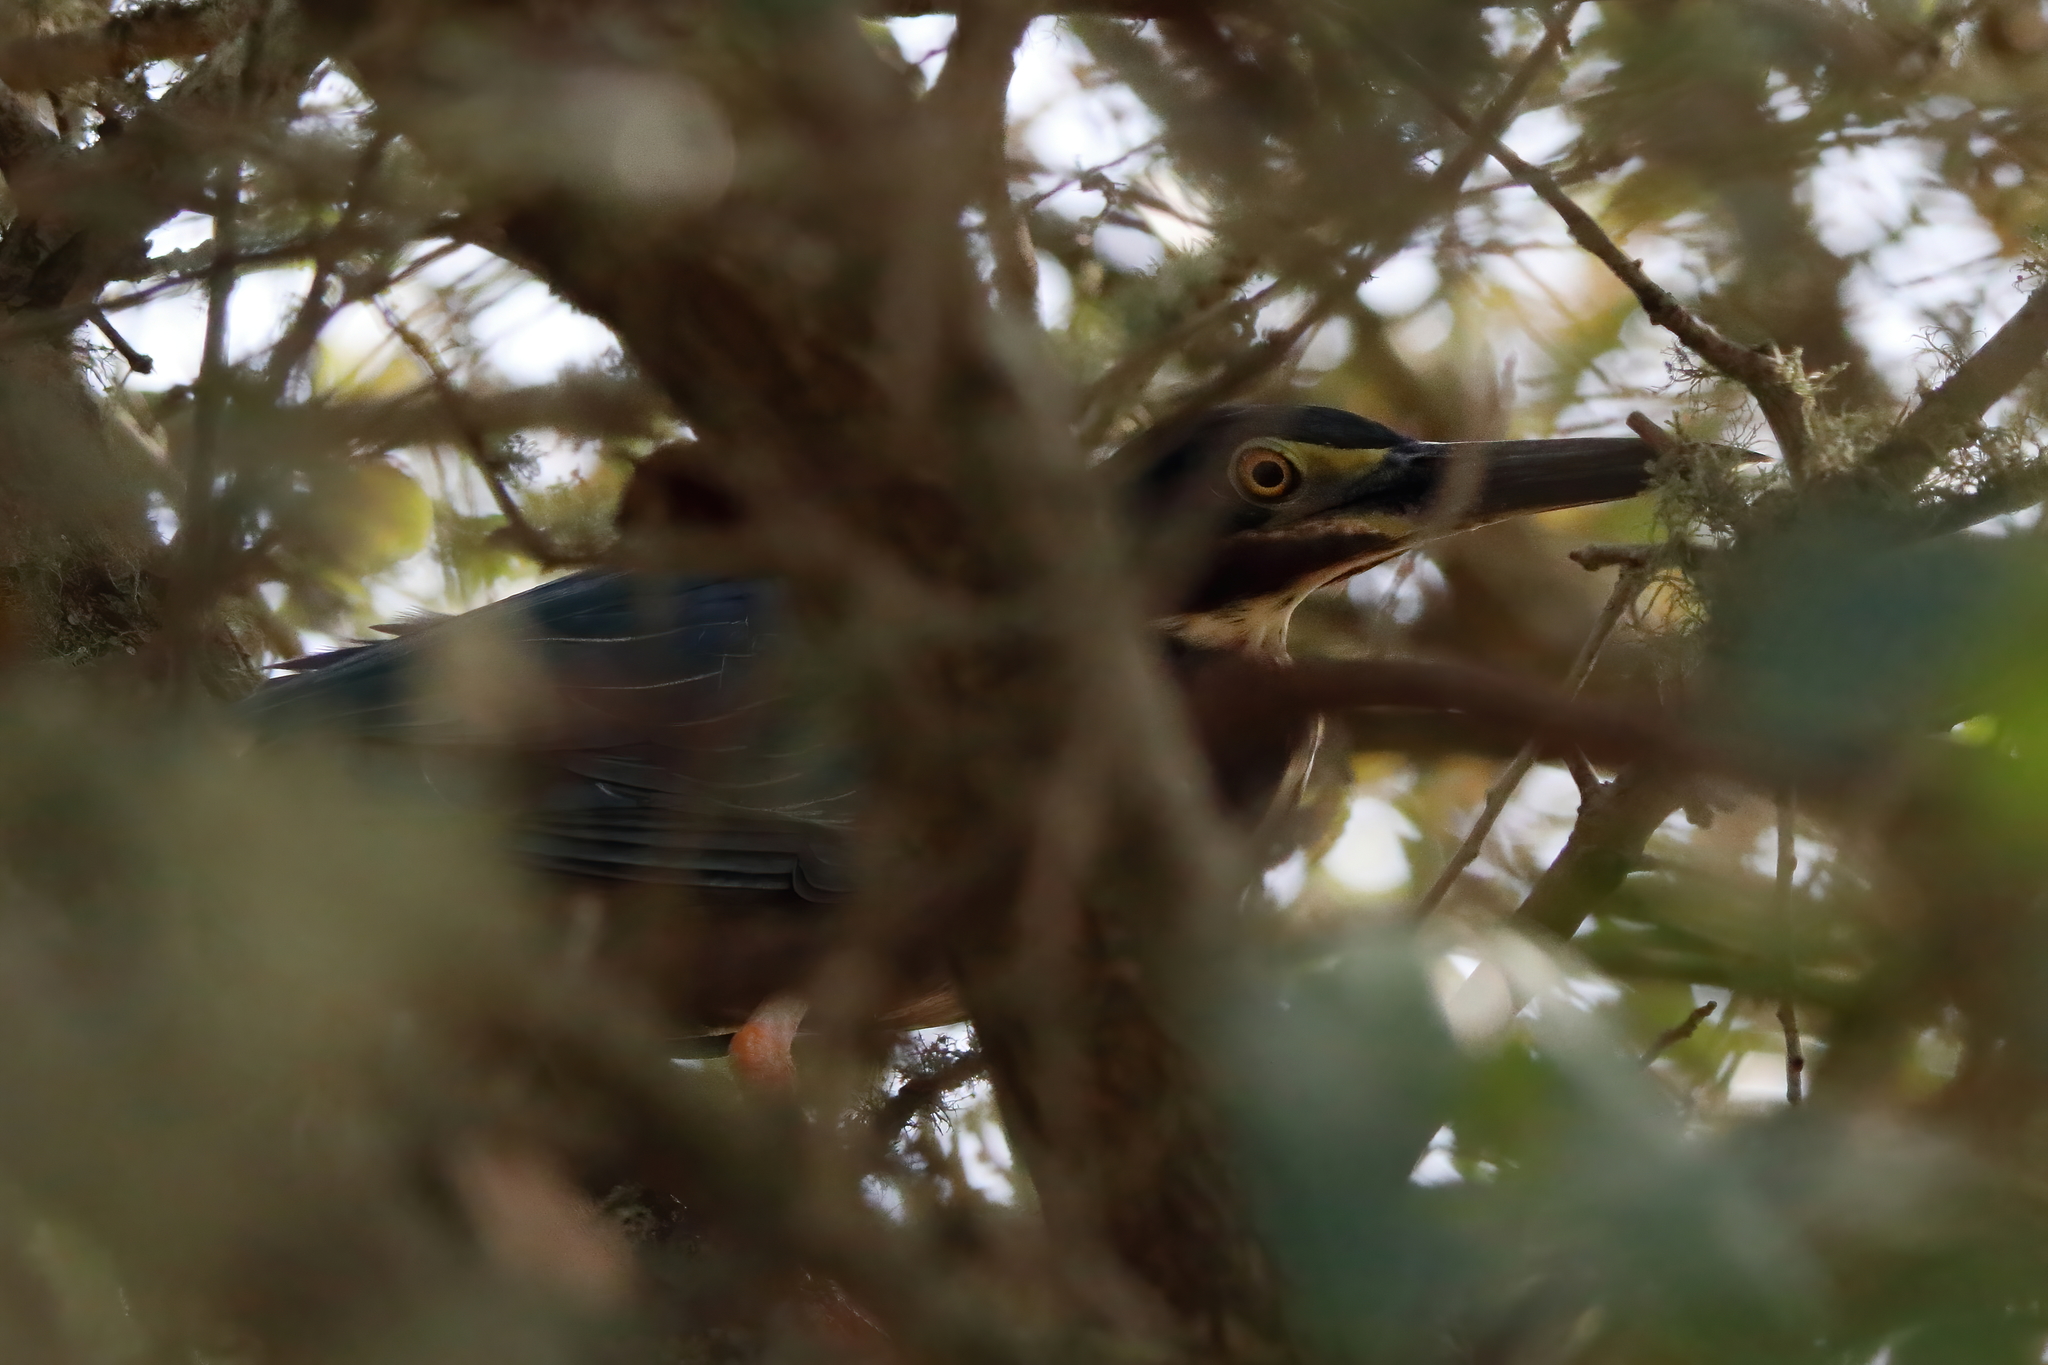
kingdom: Animalia
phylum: Chordata
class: Aves
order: Pelecaniformes
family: Ardeidae
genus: Butorides
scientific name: Butorides virescens
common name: Green heron
